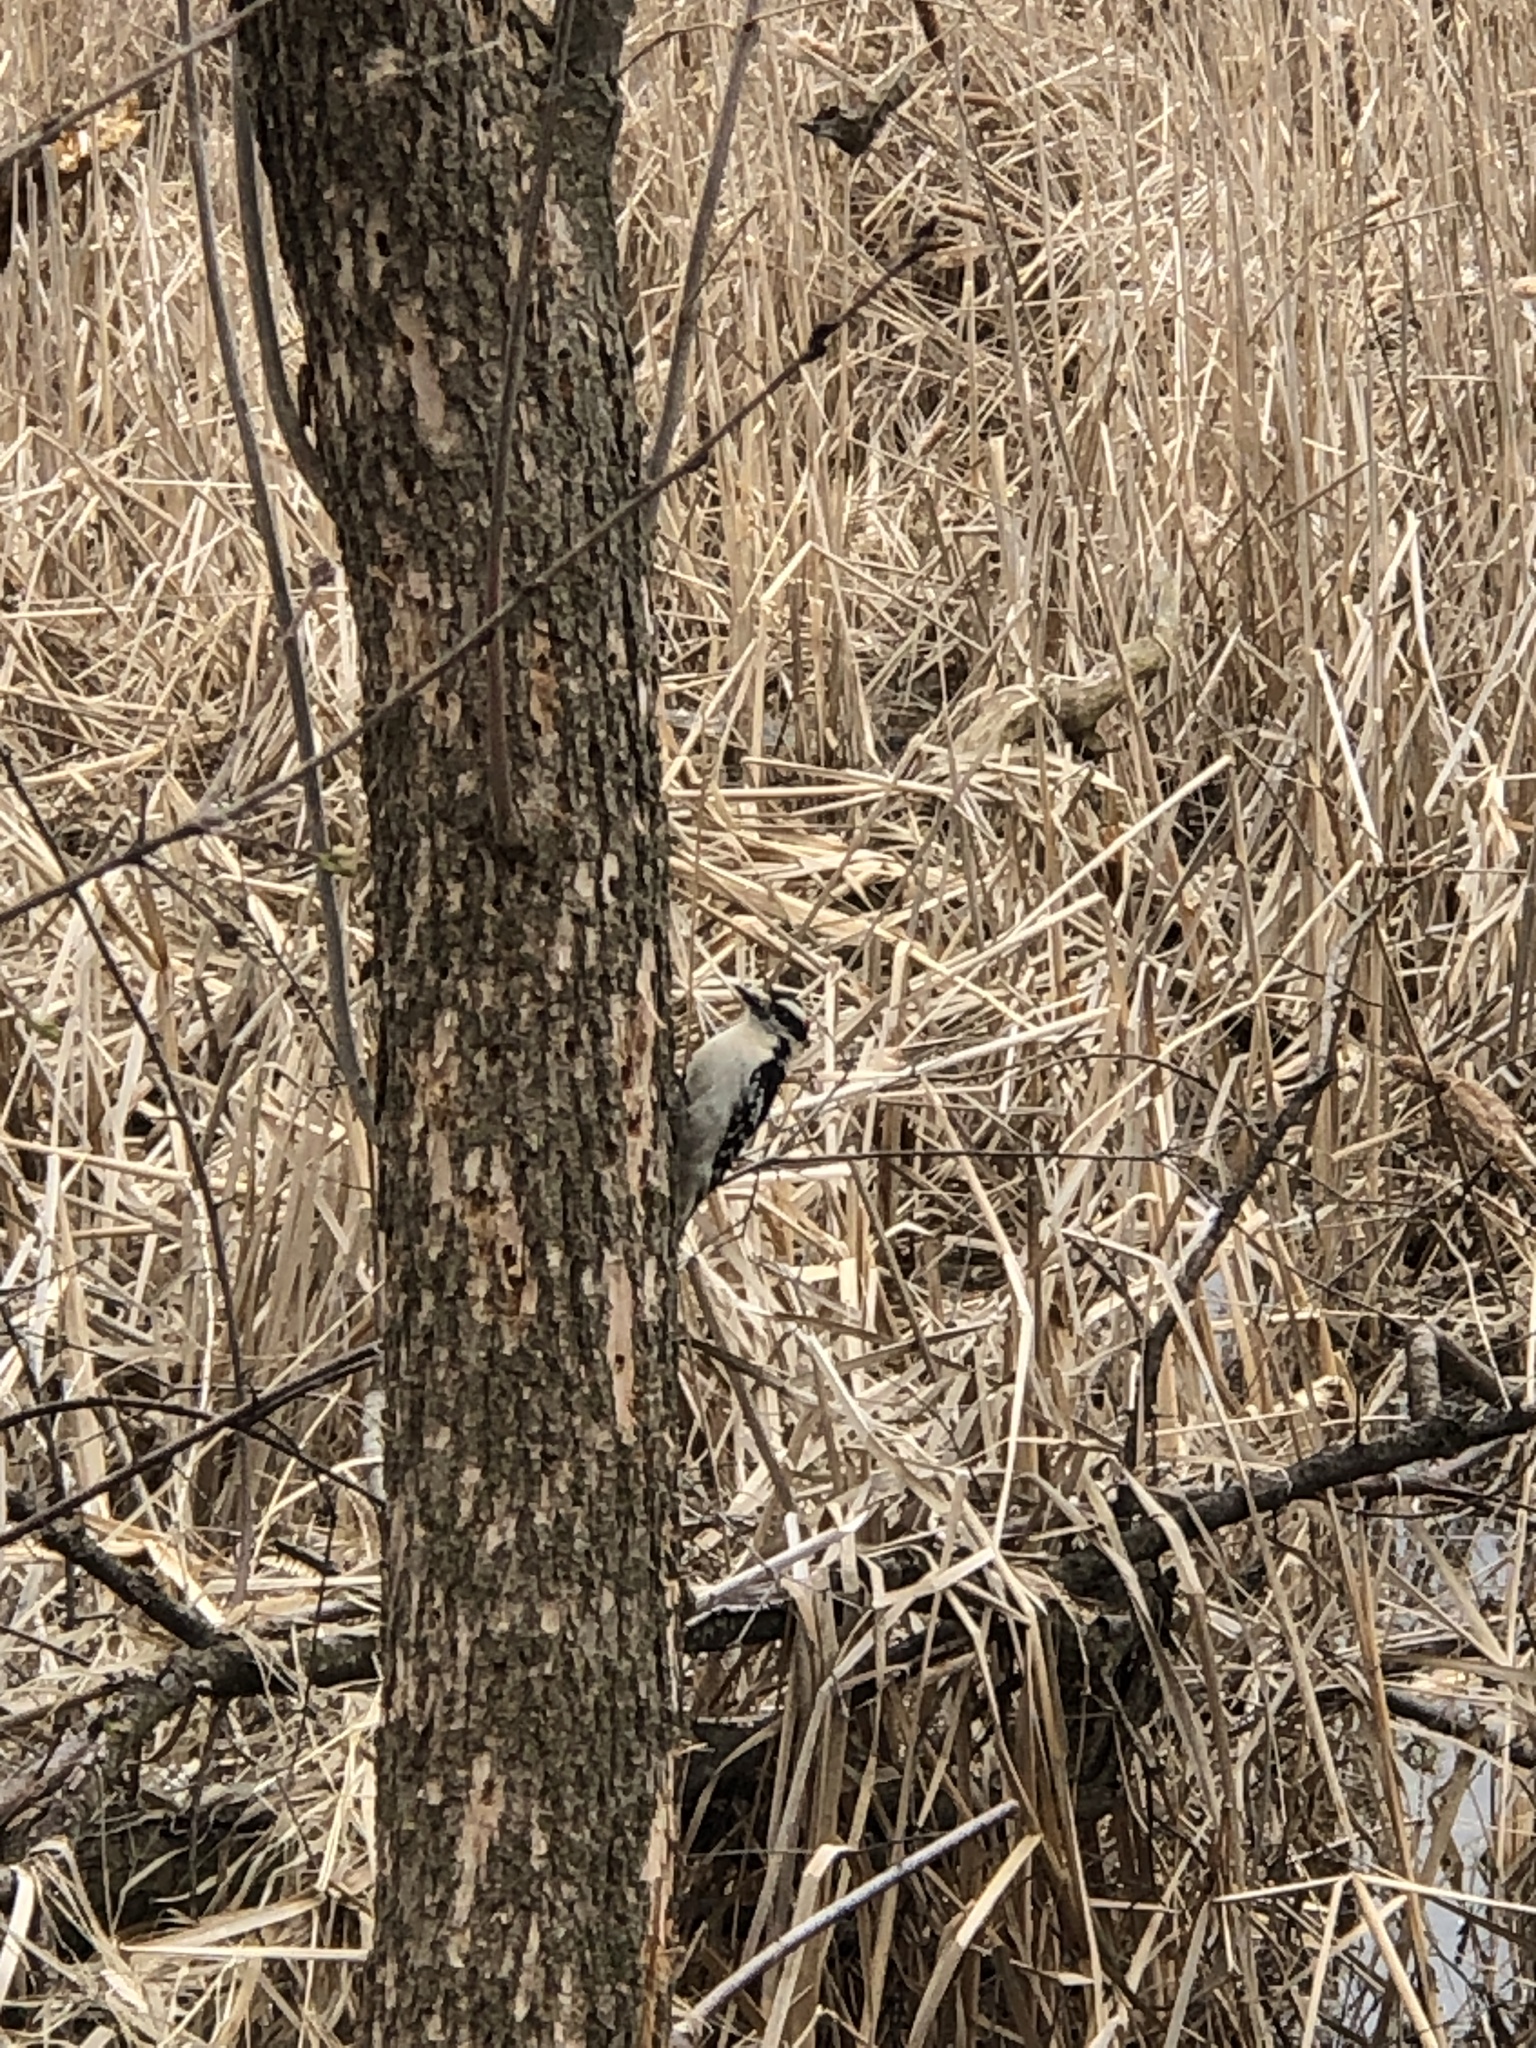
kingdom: Animalia
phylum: Chordata
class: Aves
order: Piciformes
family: Picidae
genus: Dryobates
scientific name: Dryobates pubescens
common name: Downy woodpecker
